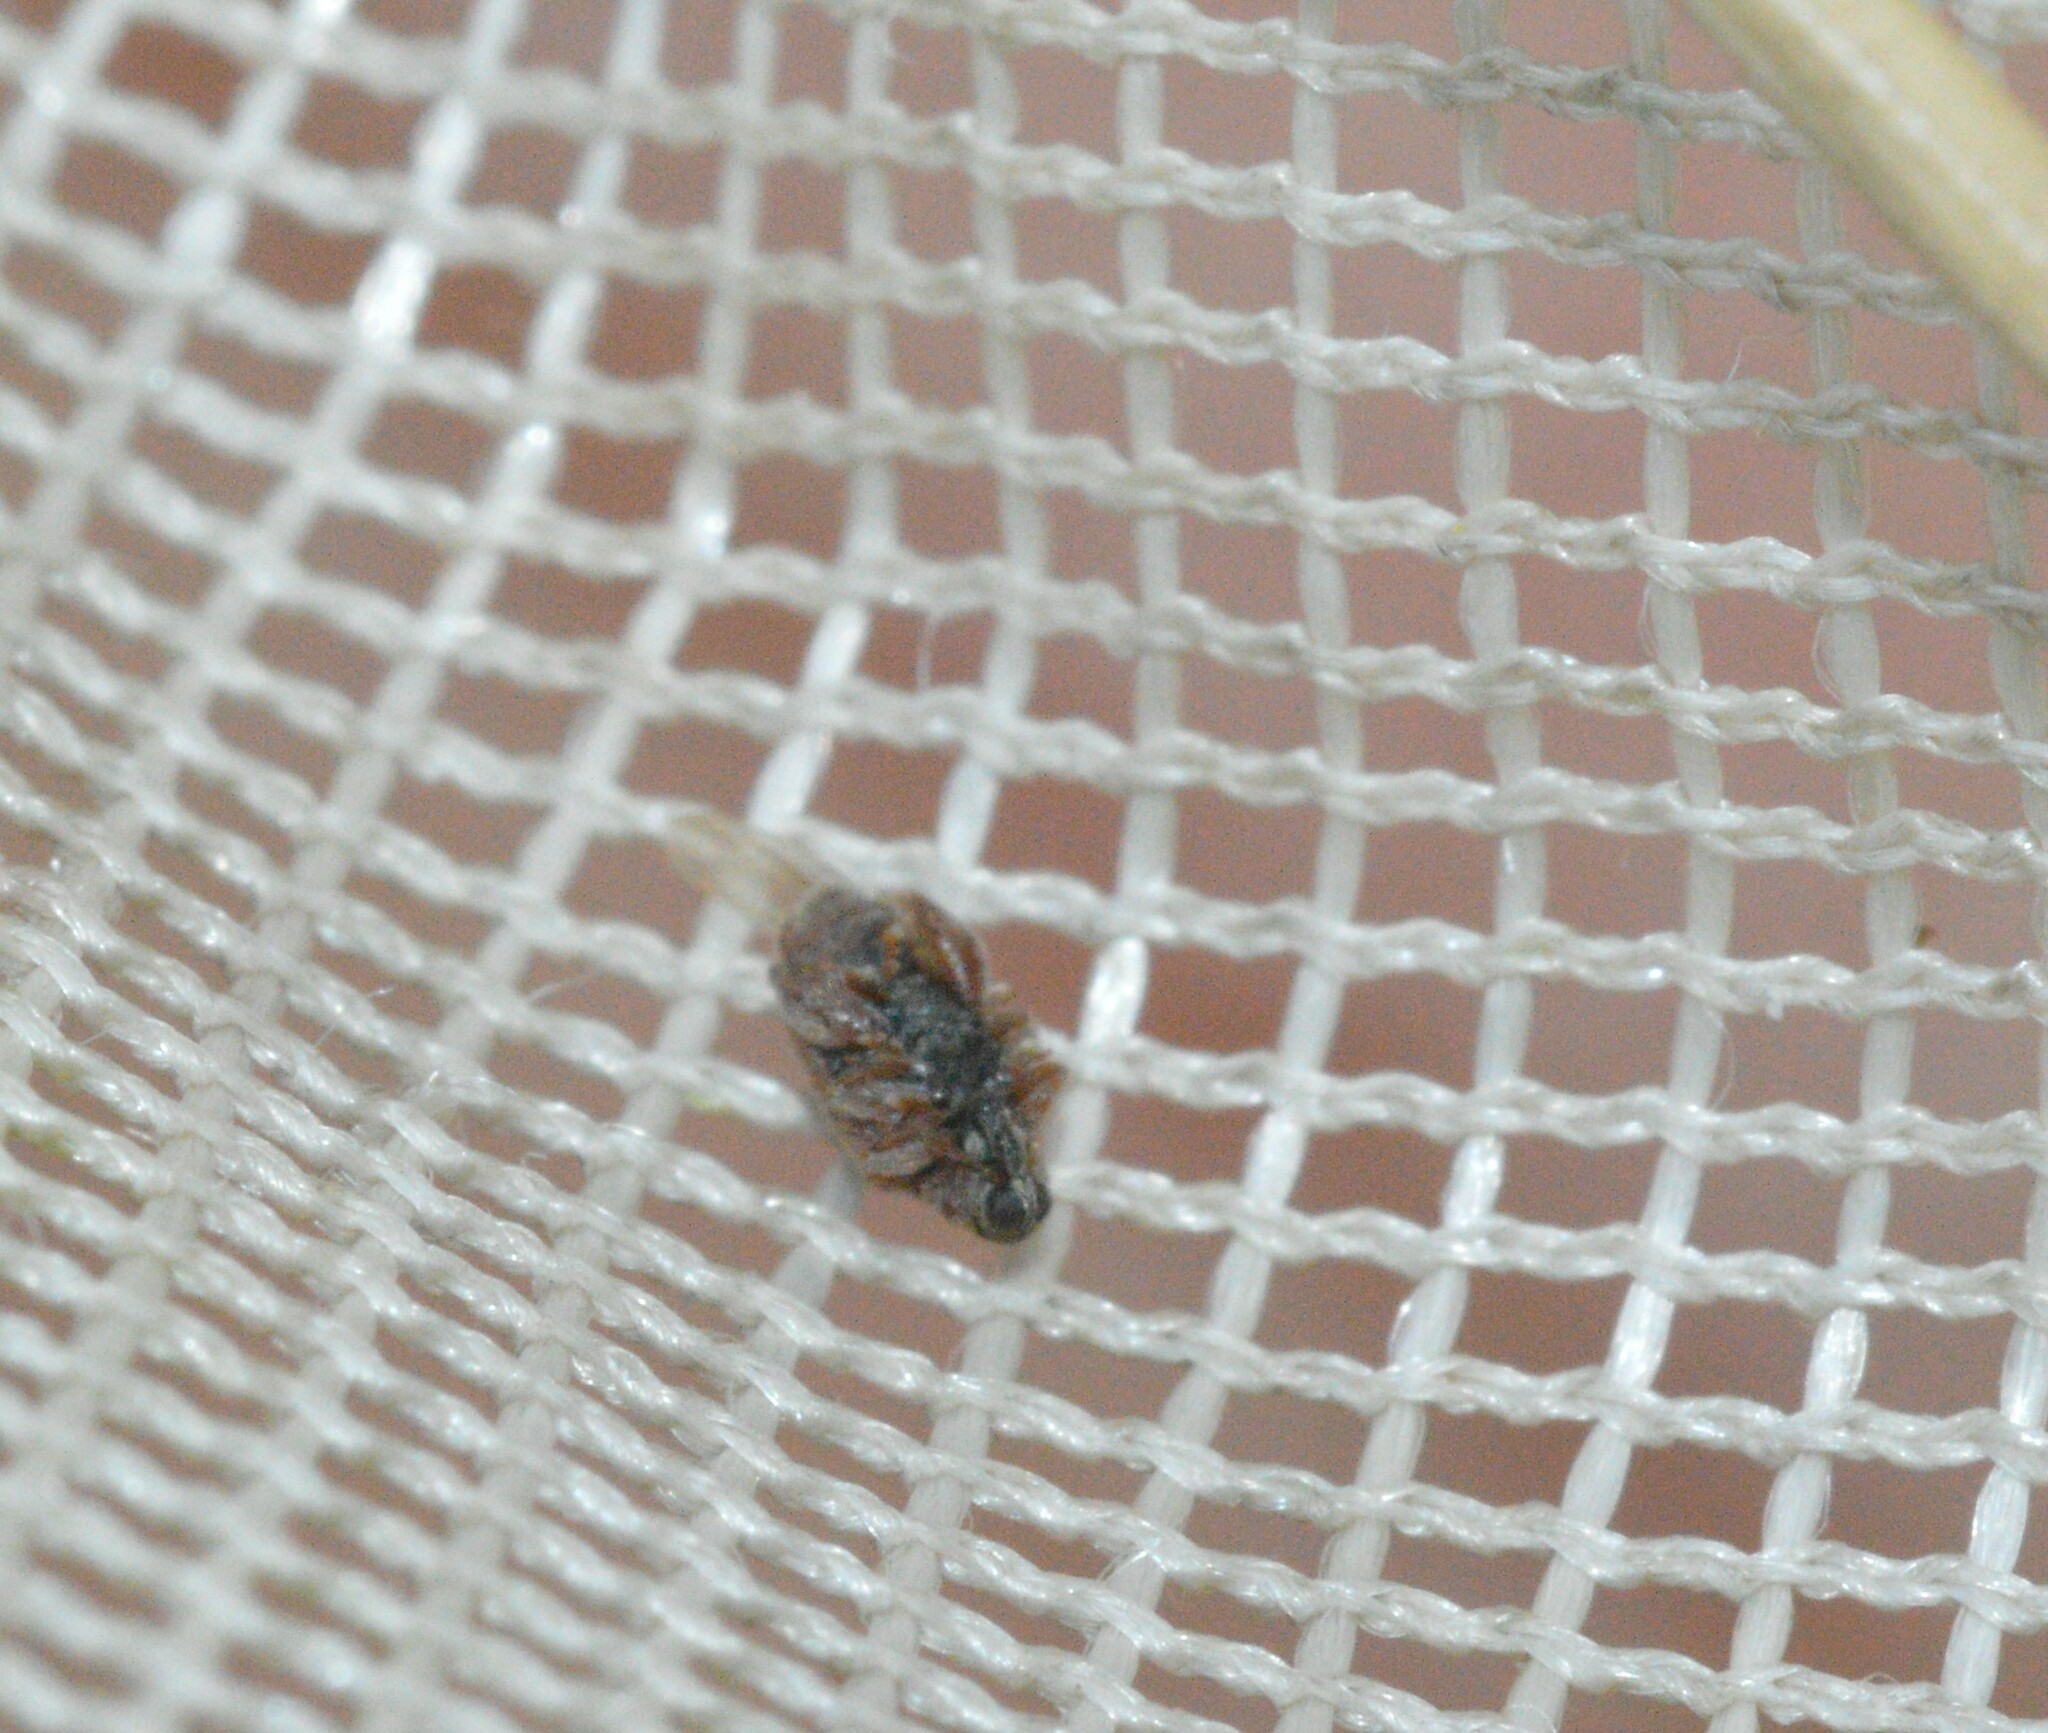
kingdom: Animalia
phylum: Arthropoda
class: Insecta
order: Coleoptera
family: Curculionidae
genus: Orchestes
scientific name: Orchestes steppensis
